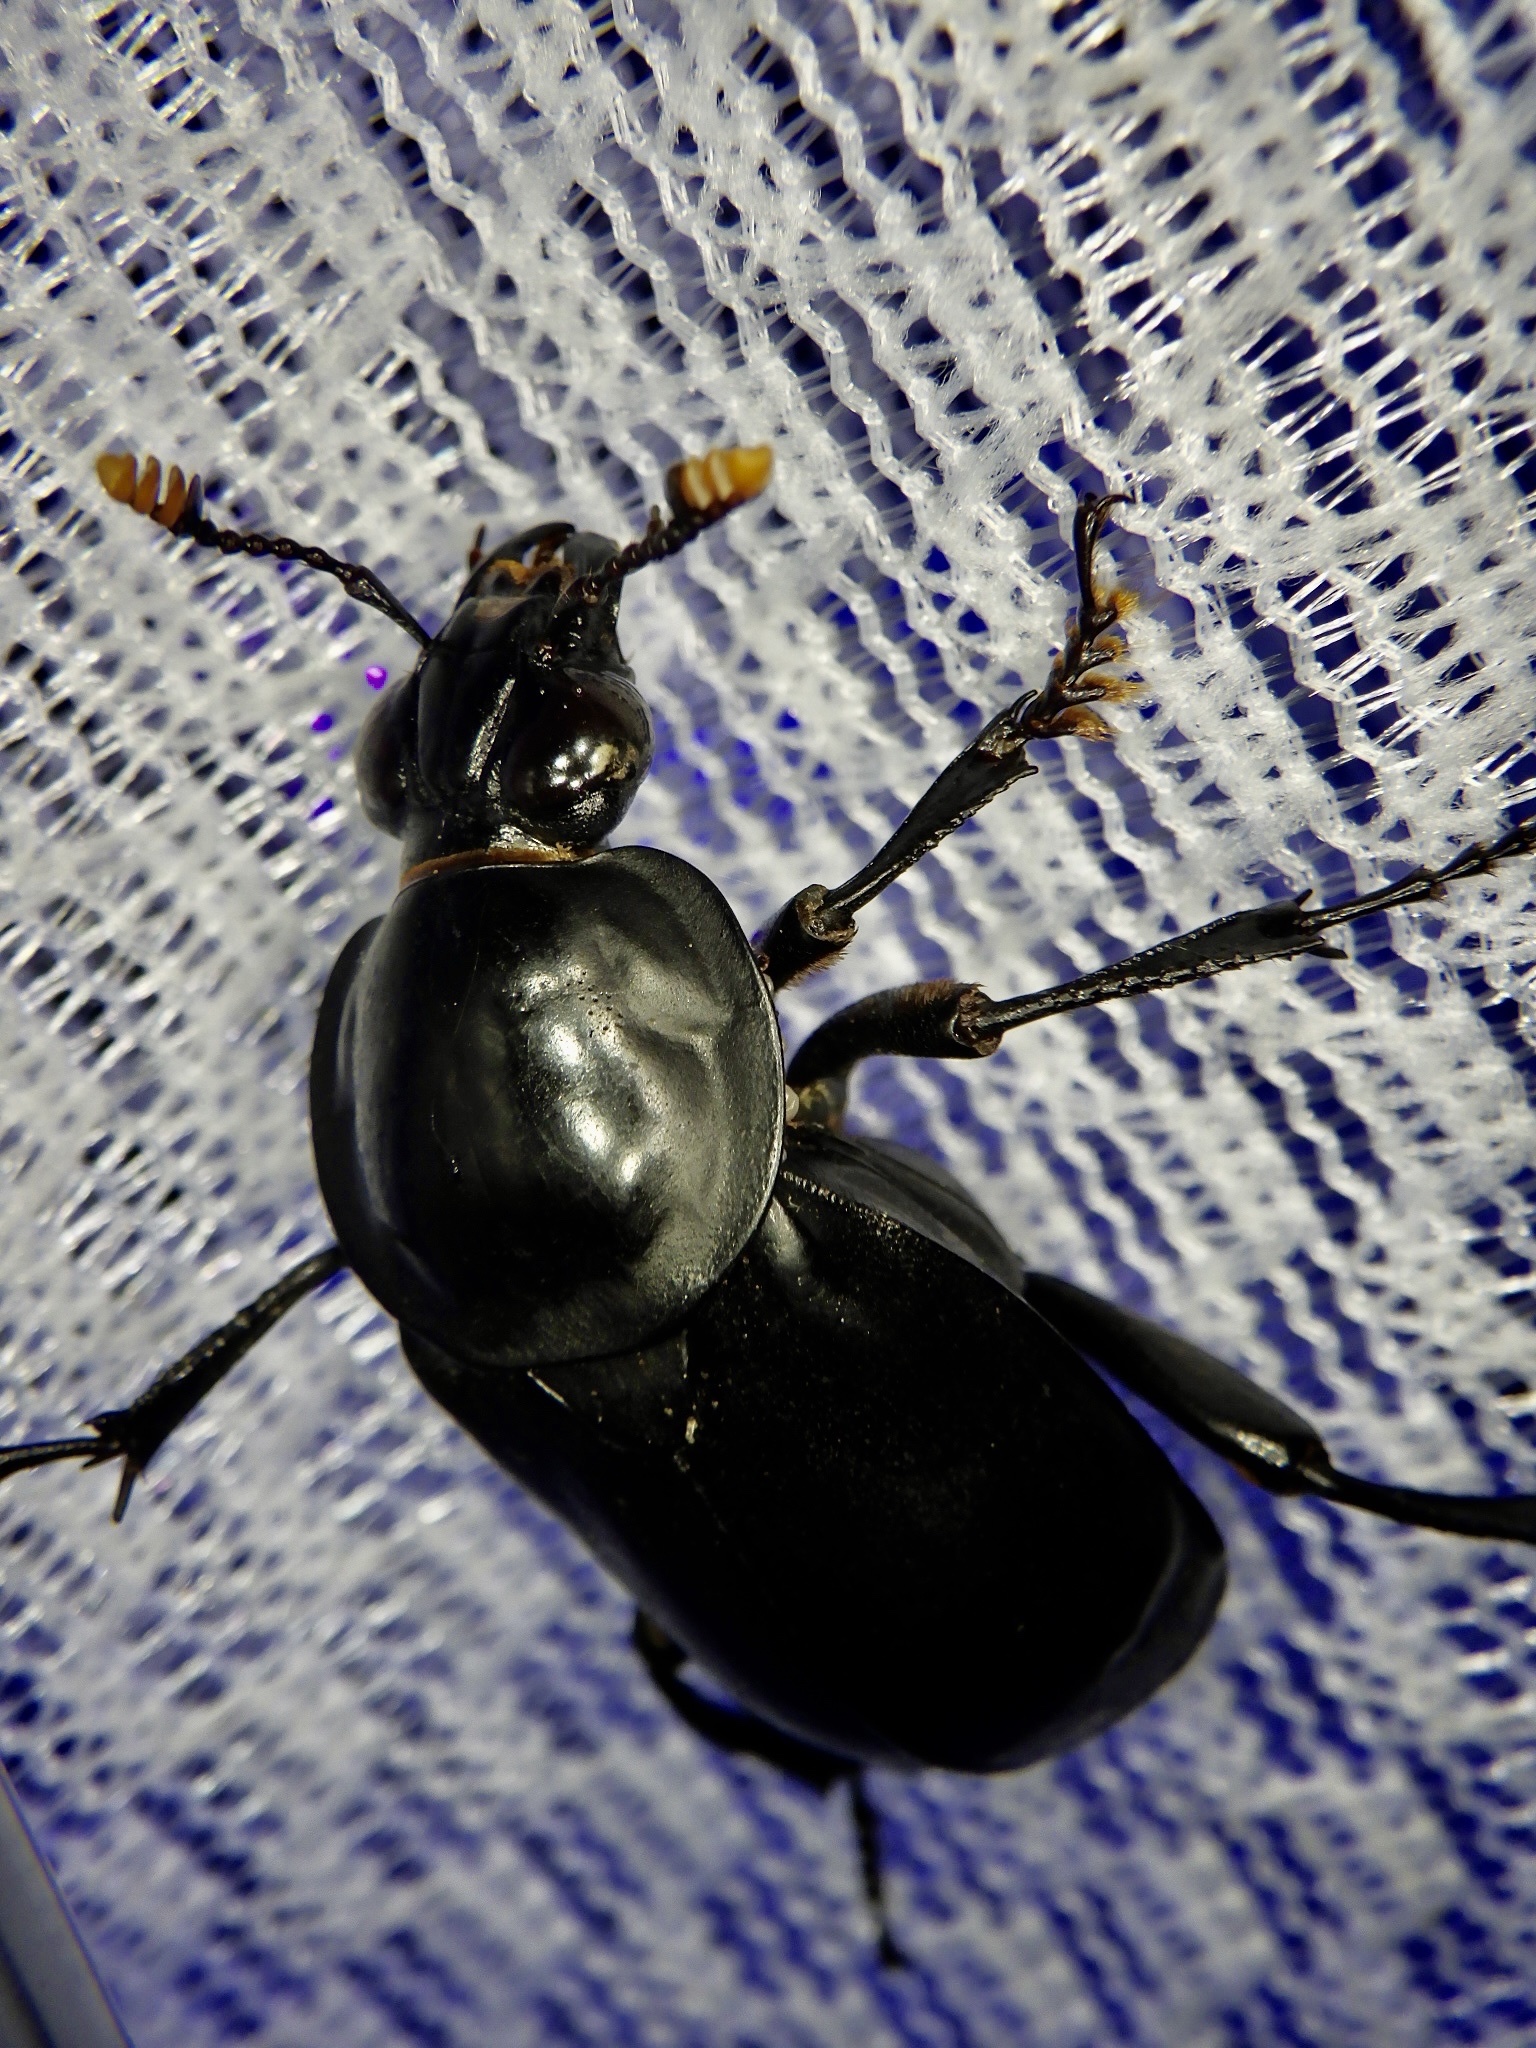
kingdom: Animalia
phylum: Arthropoda
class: Insecta
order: Coleoptera
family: Staphylinidae
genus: Nicrophorus
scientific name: Nicrophorus concolor
